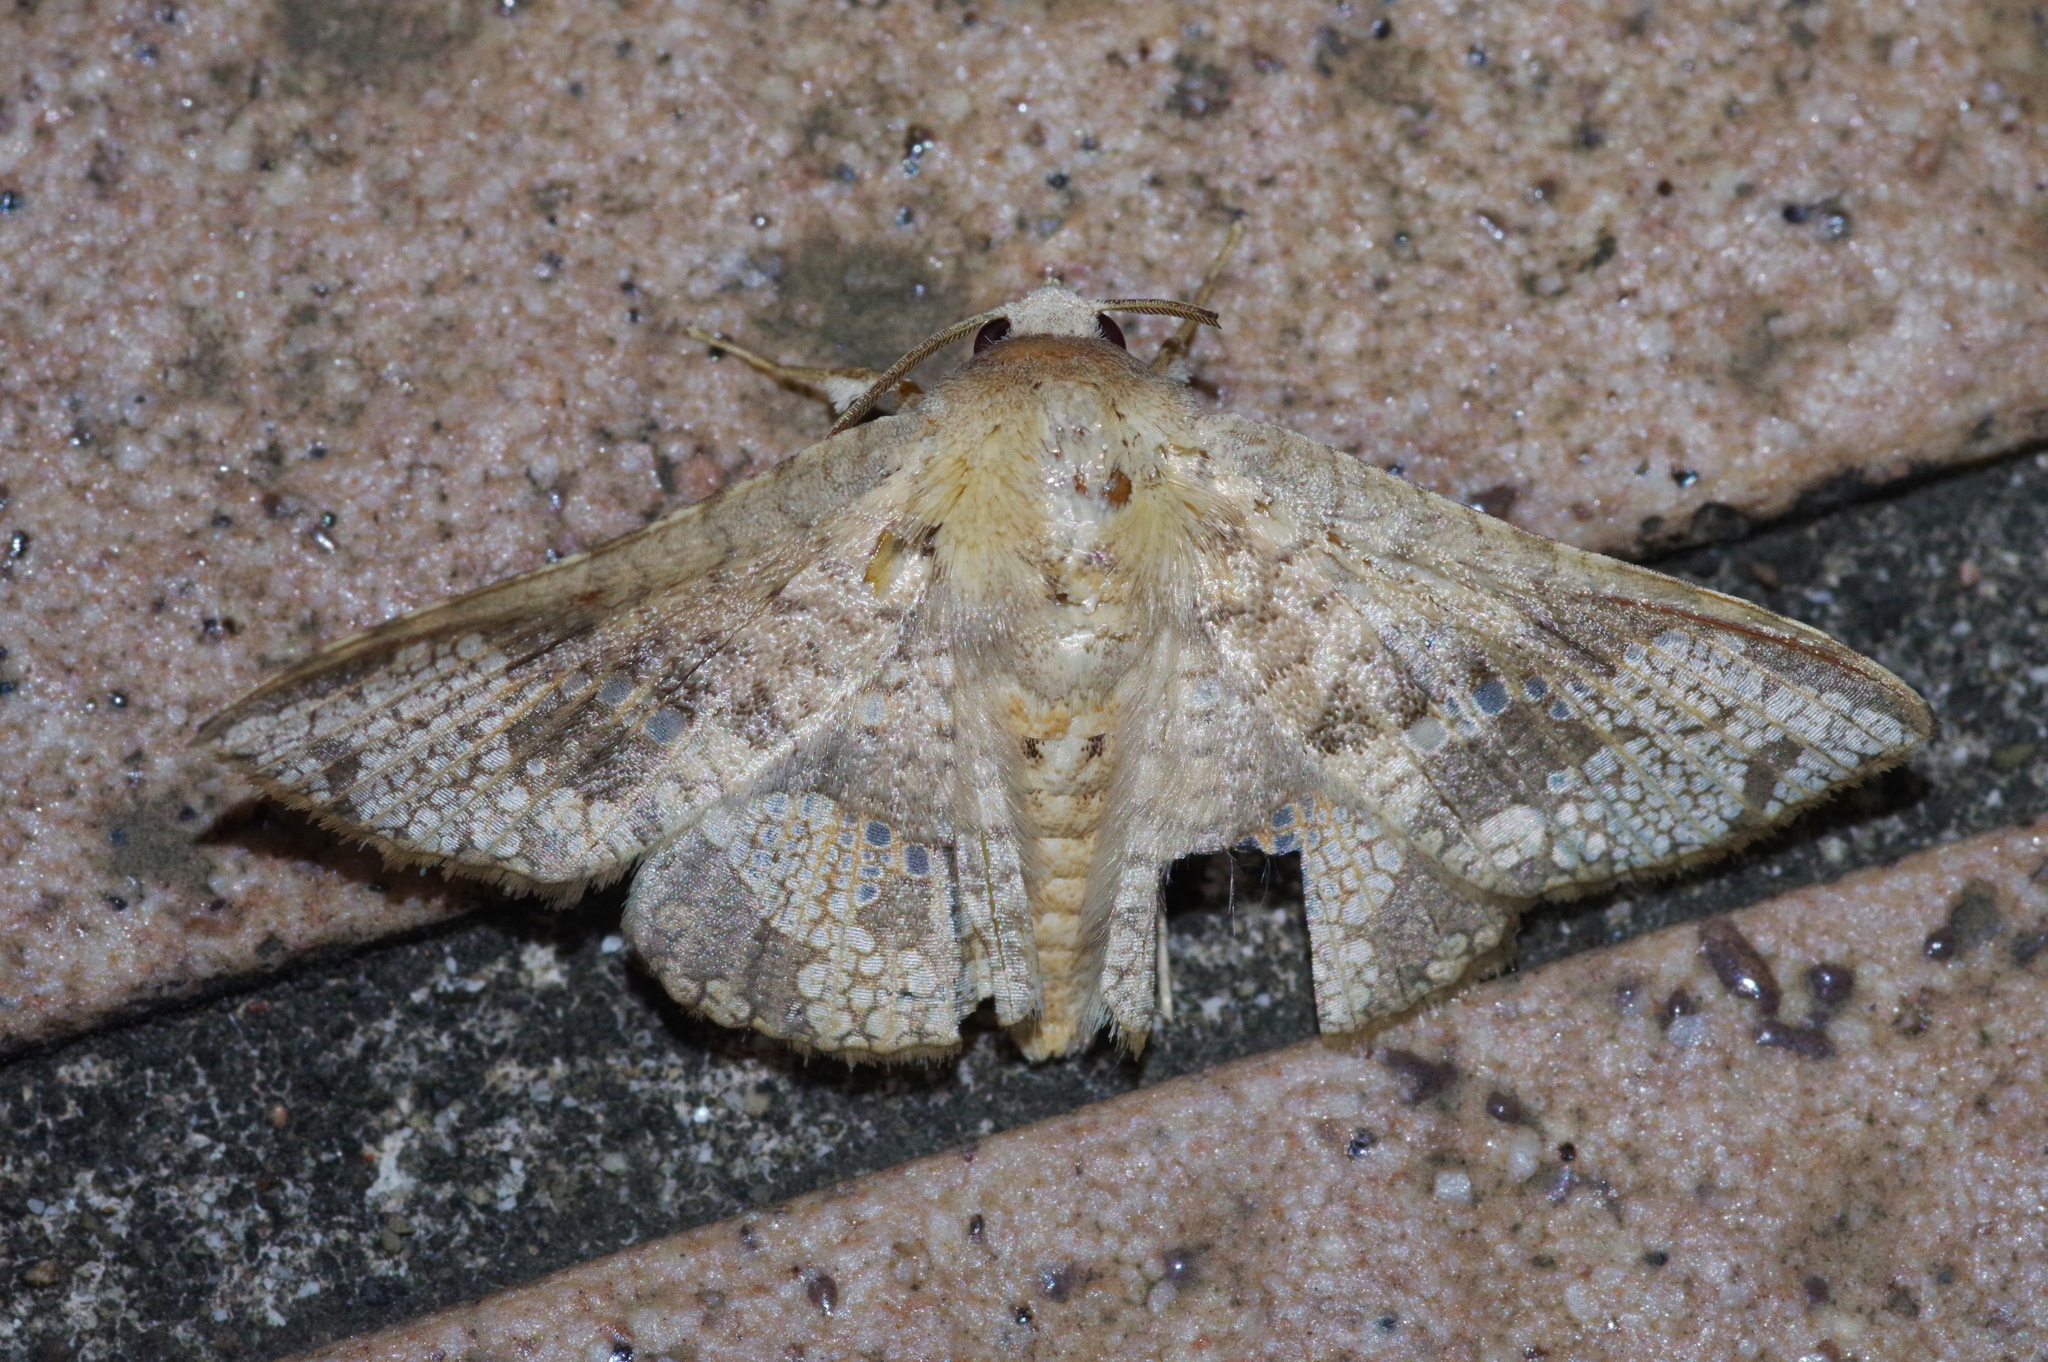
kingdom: Animalia
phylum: Arthropoda
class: Insecta
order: Lepidoptera
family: Thyrididae
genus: Canaea
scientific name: Canaea ryukyuensis
